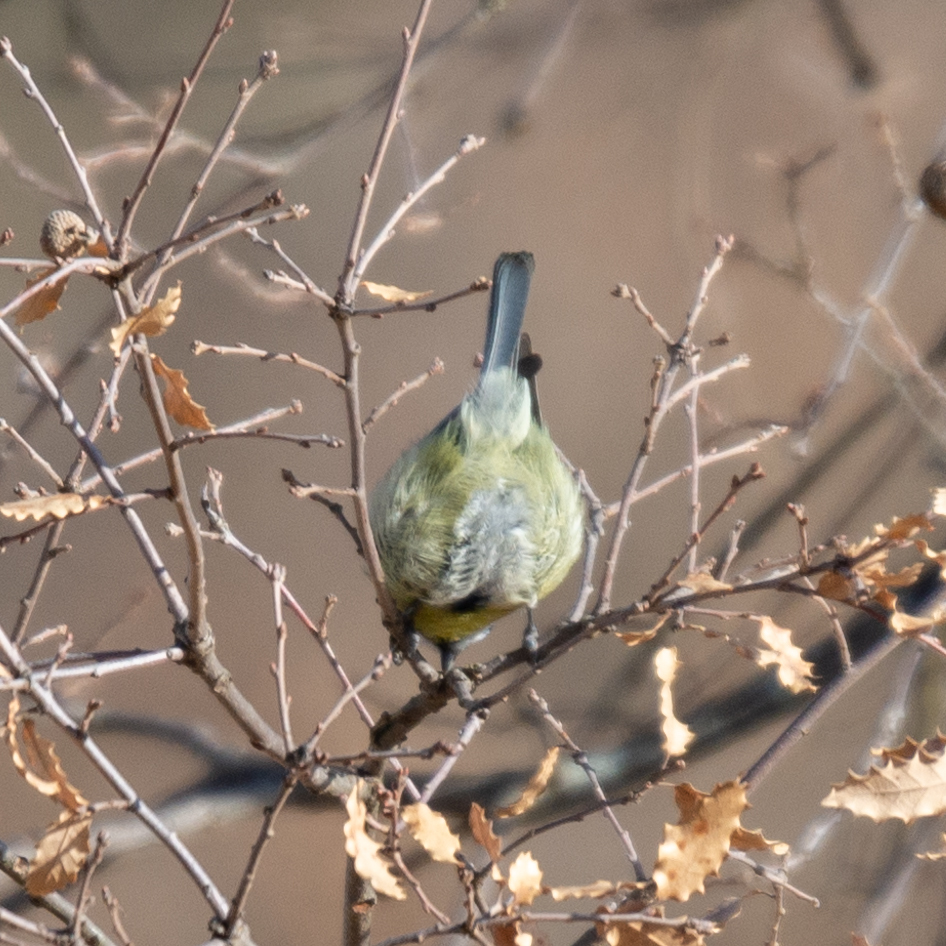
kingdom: Animalia
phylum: Chordata
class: Aves
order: Passeriformes
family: Paridae
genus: Cyanistes
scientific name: Cyanistes caeruleus
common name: Eurasian blue tit
